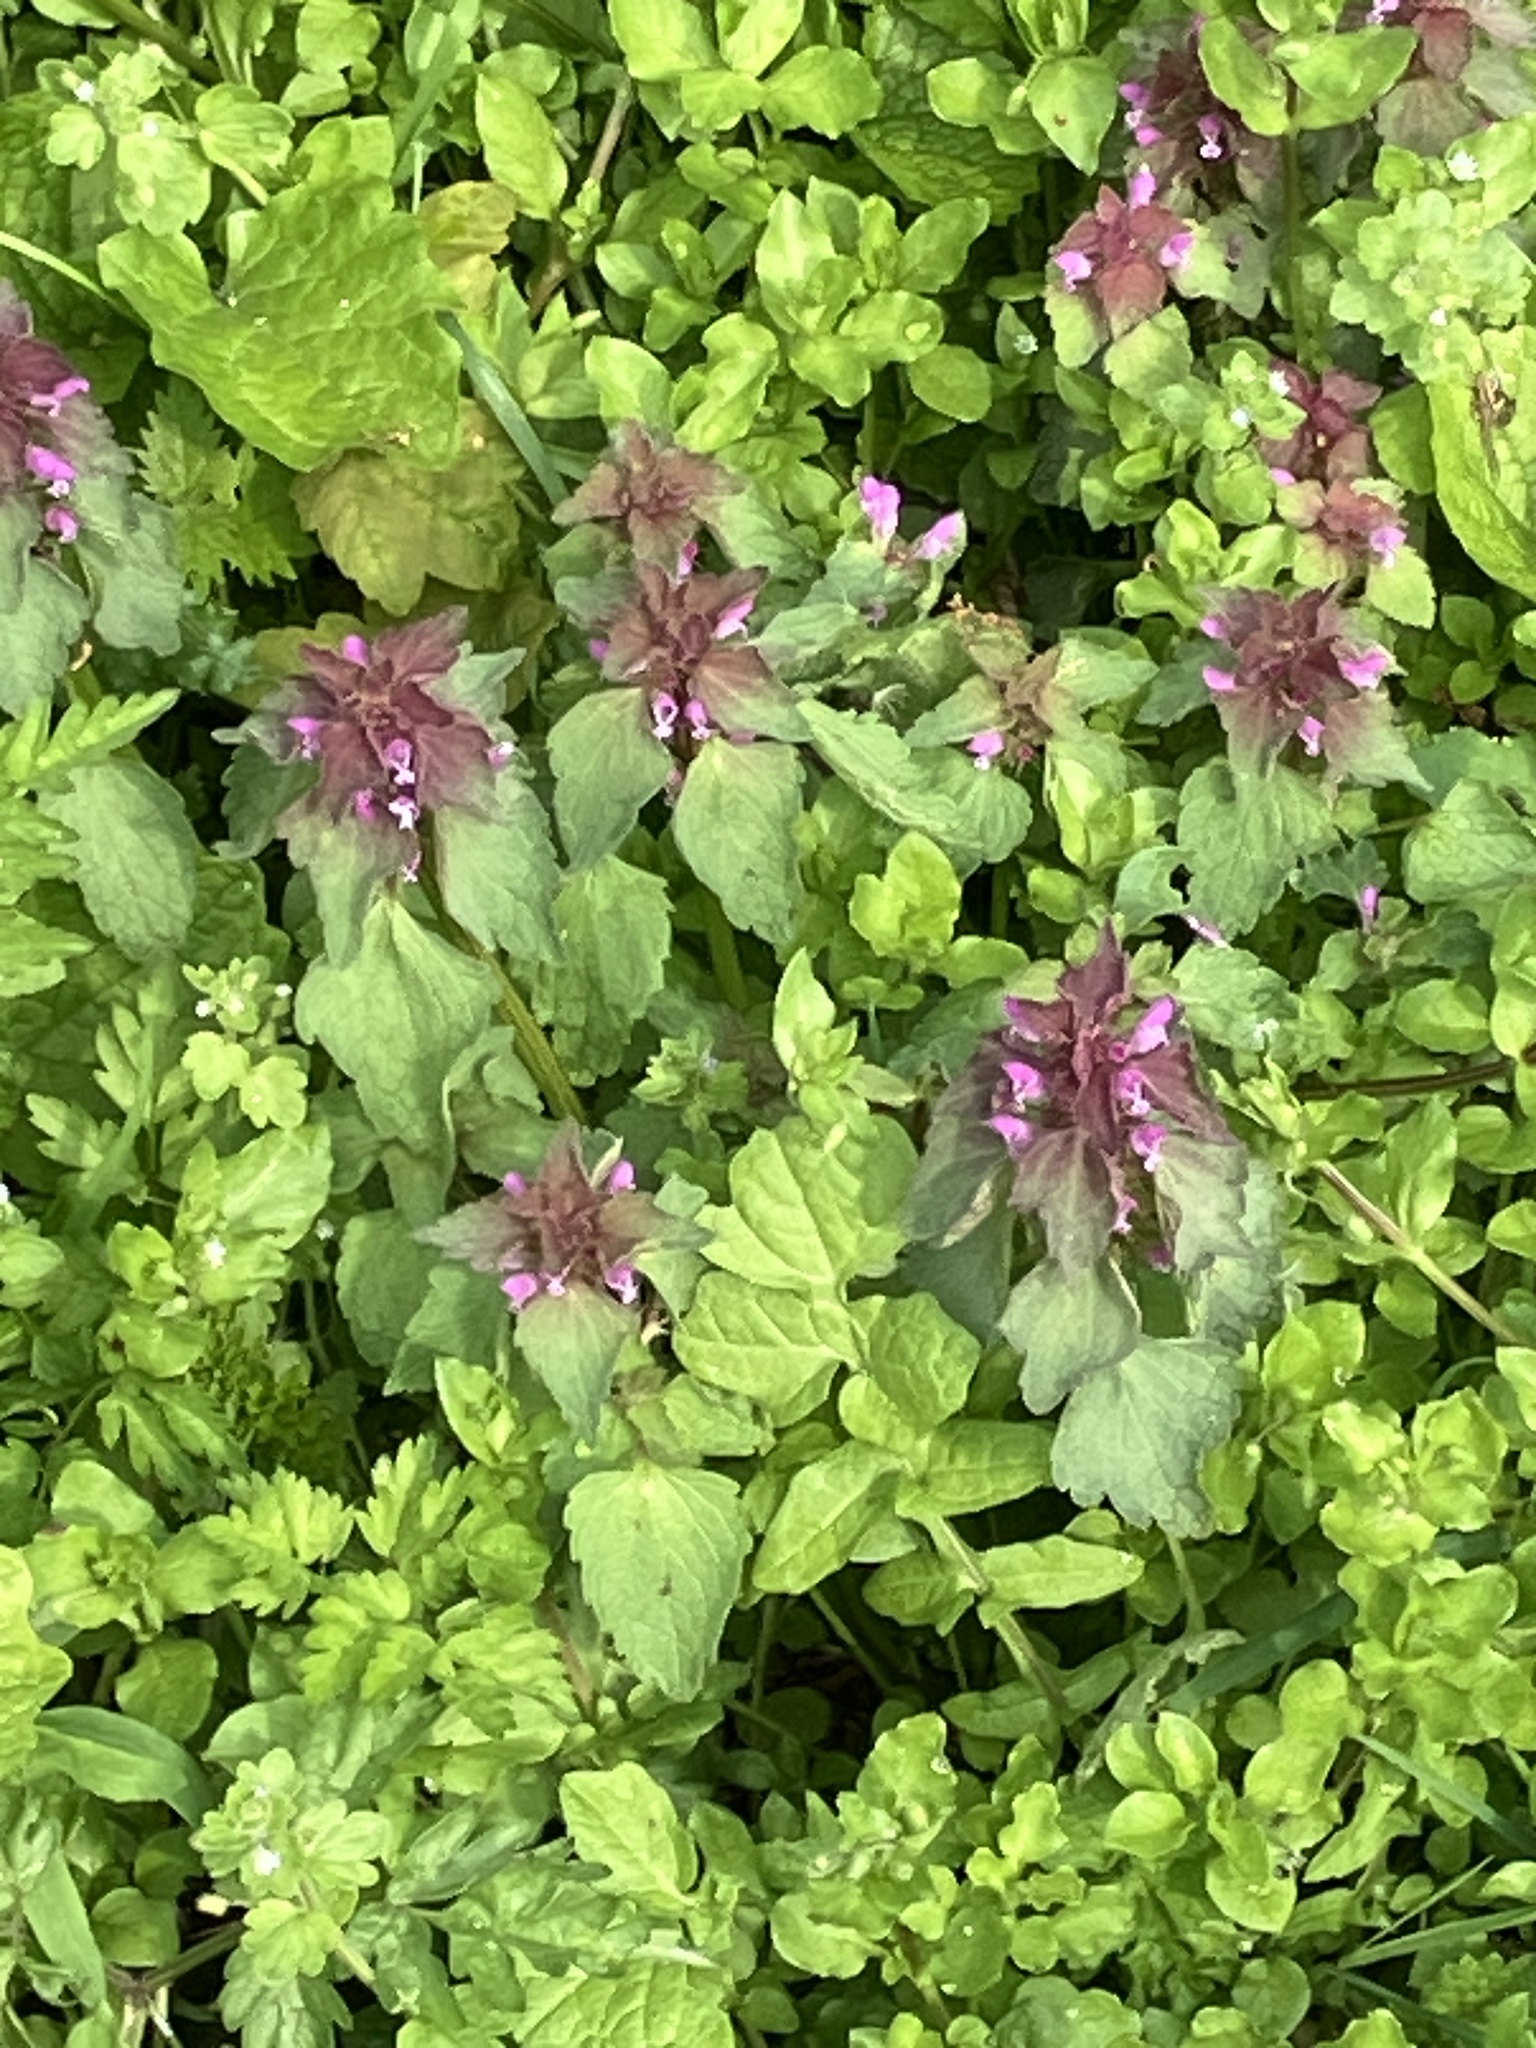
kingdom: Plantae
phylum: Tracheophyta
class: Magnoliopsida
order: Lamiales
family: Lamiaceae
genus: Lamium
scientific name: Lamium purpureum
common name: Red dead-nettle
